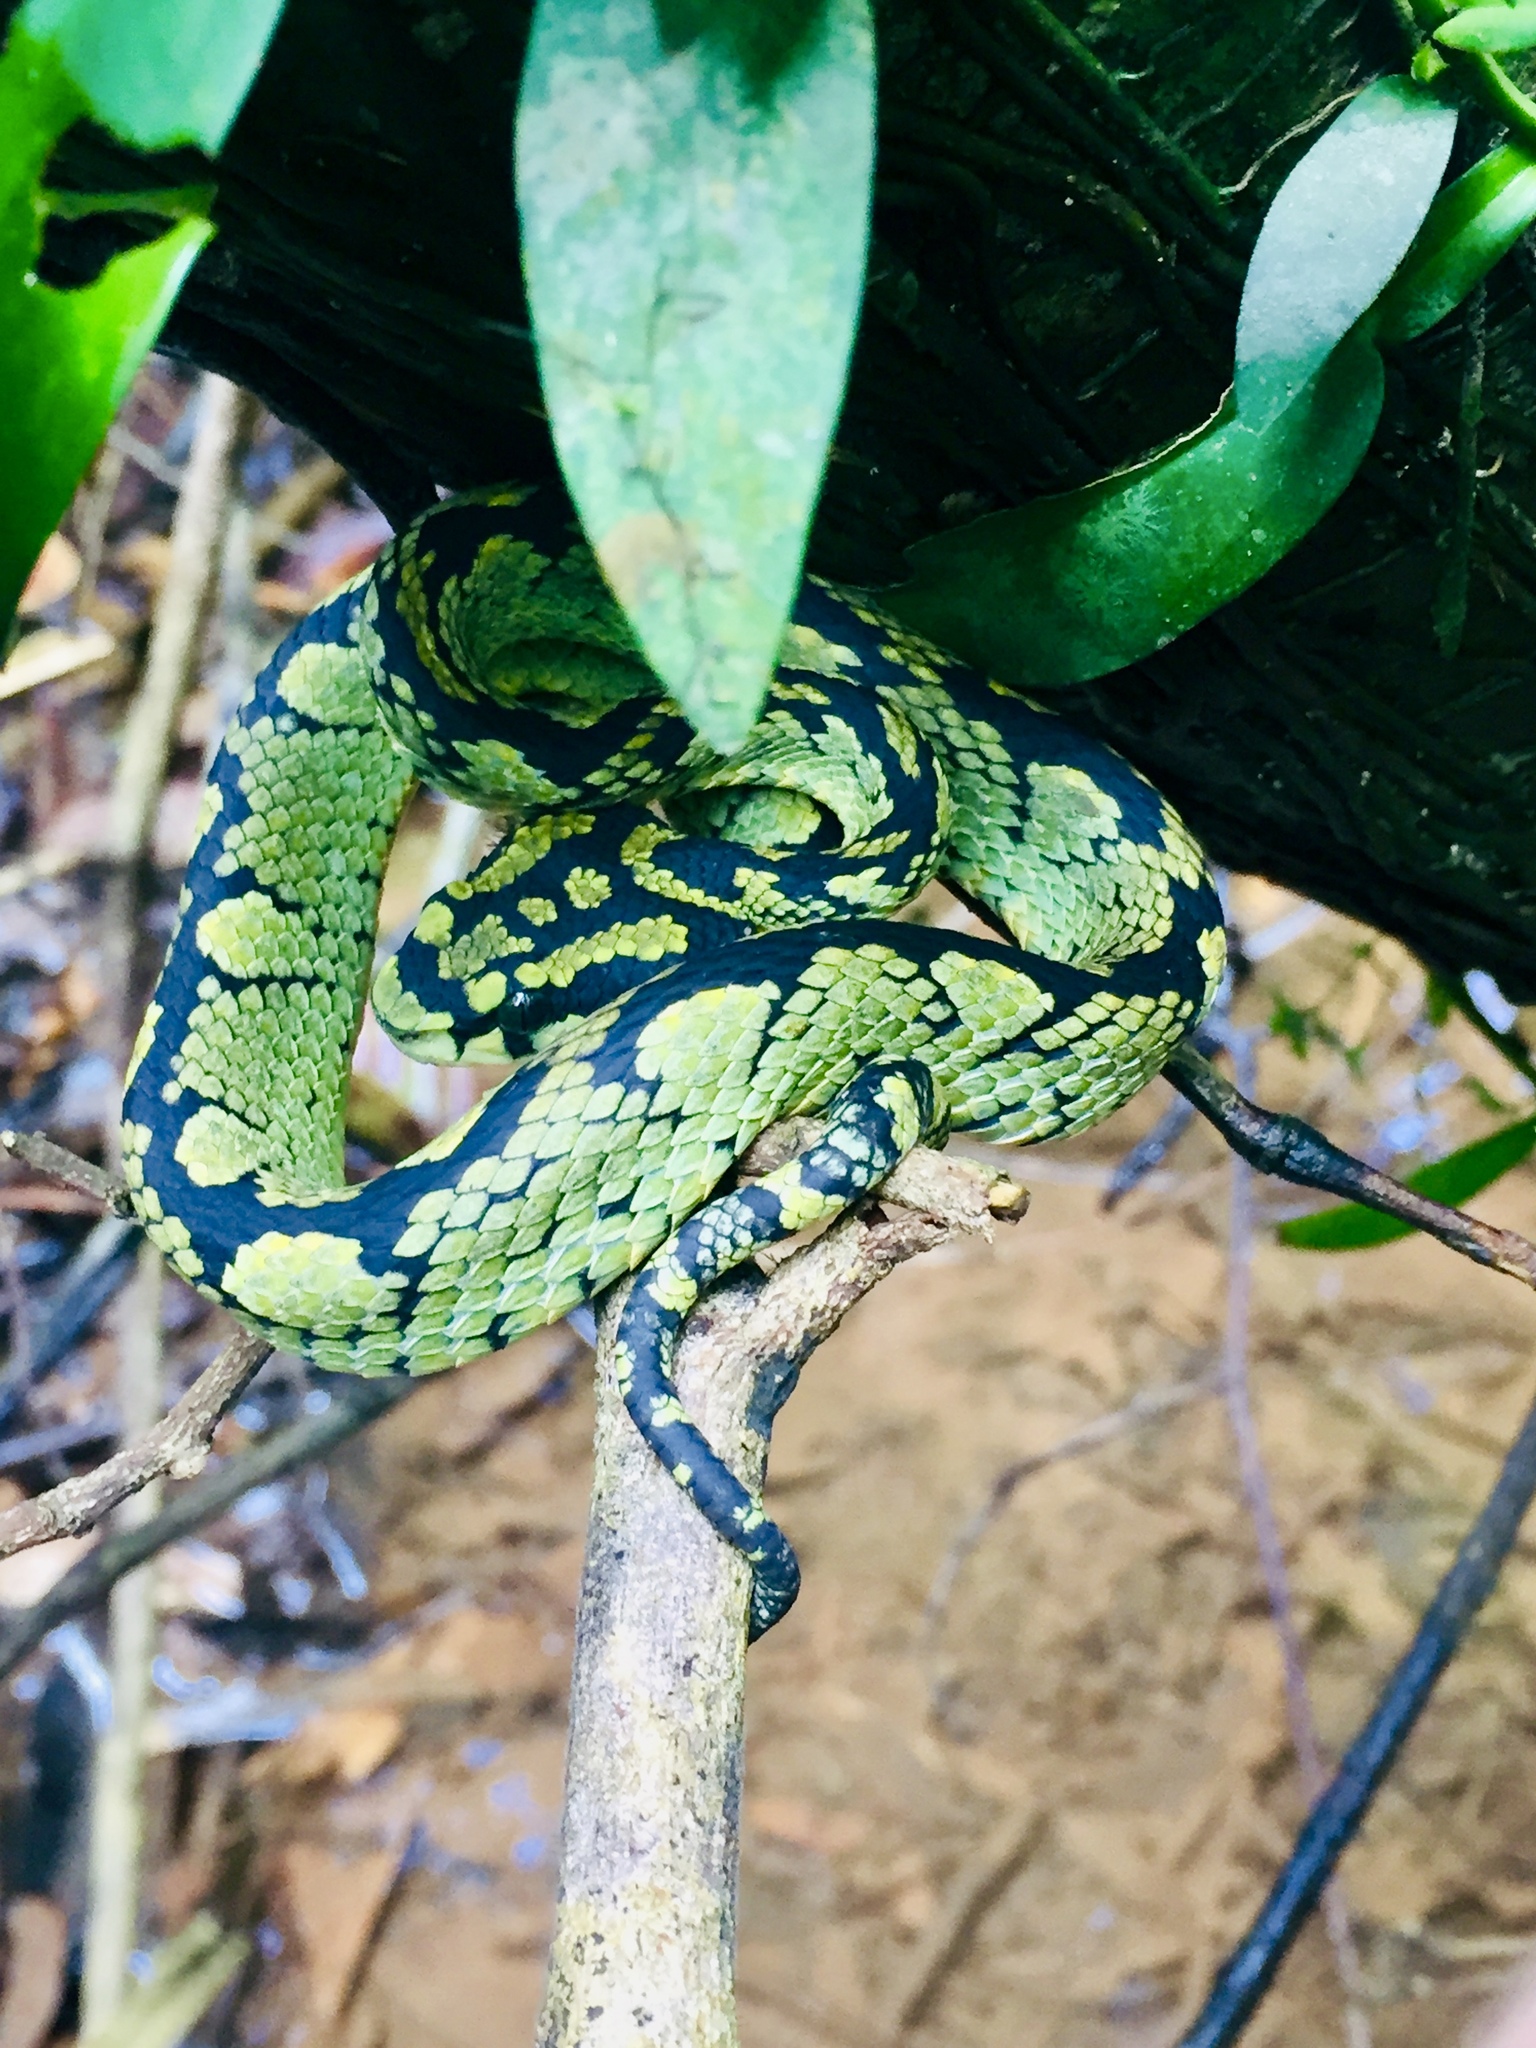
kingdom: Animalia
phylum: Chordata
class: Squamata
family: Viperidae
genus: Craspedocephalus
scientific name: Craspedocephalus trigonocephalus
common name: Ceylon pit viper
